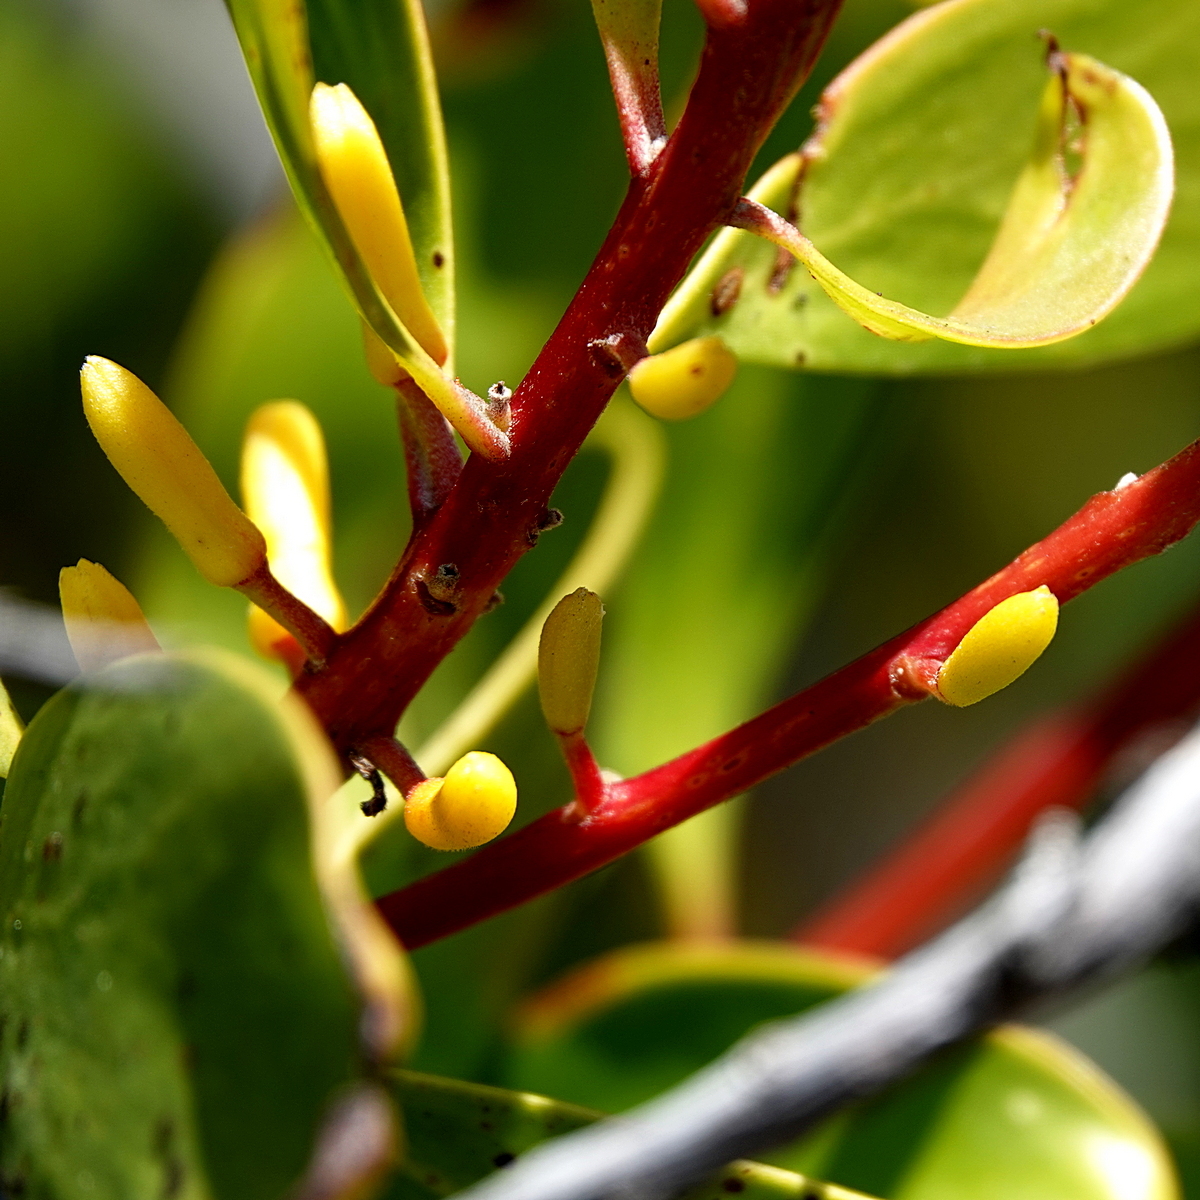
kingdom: Plantae
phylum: Tracheophyta
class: Magnoliopsida
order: Proteales
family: Proteaceae
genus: Persoonia
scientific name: Persoonia levis
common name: Smooth geebung
